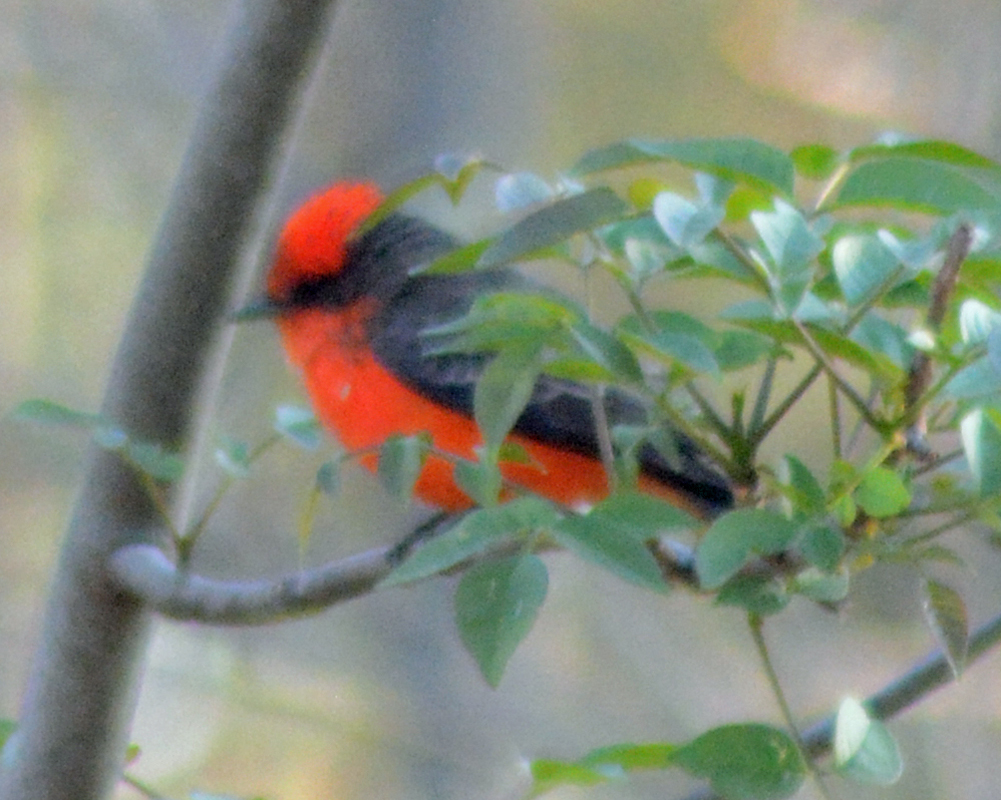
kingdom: Animalia
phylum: Chordata
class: Aves
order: Passeriformes
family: Tyrannidae
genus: Pyrocephalus
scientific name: Pyrocephalus rubinus
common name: Vermilion flycatcher
